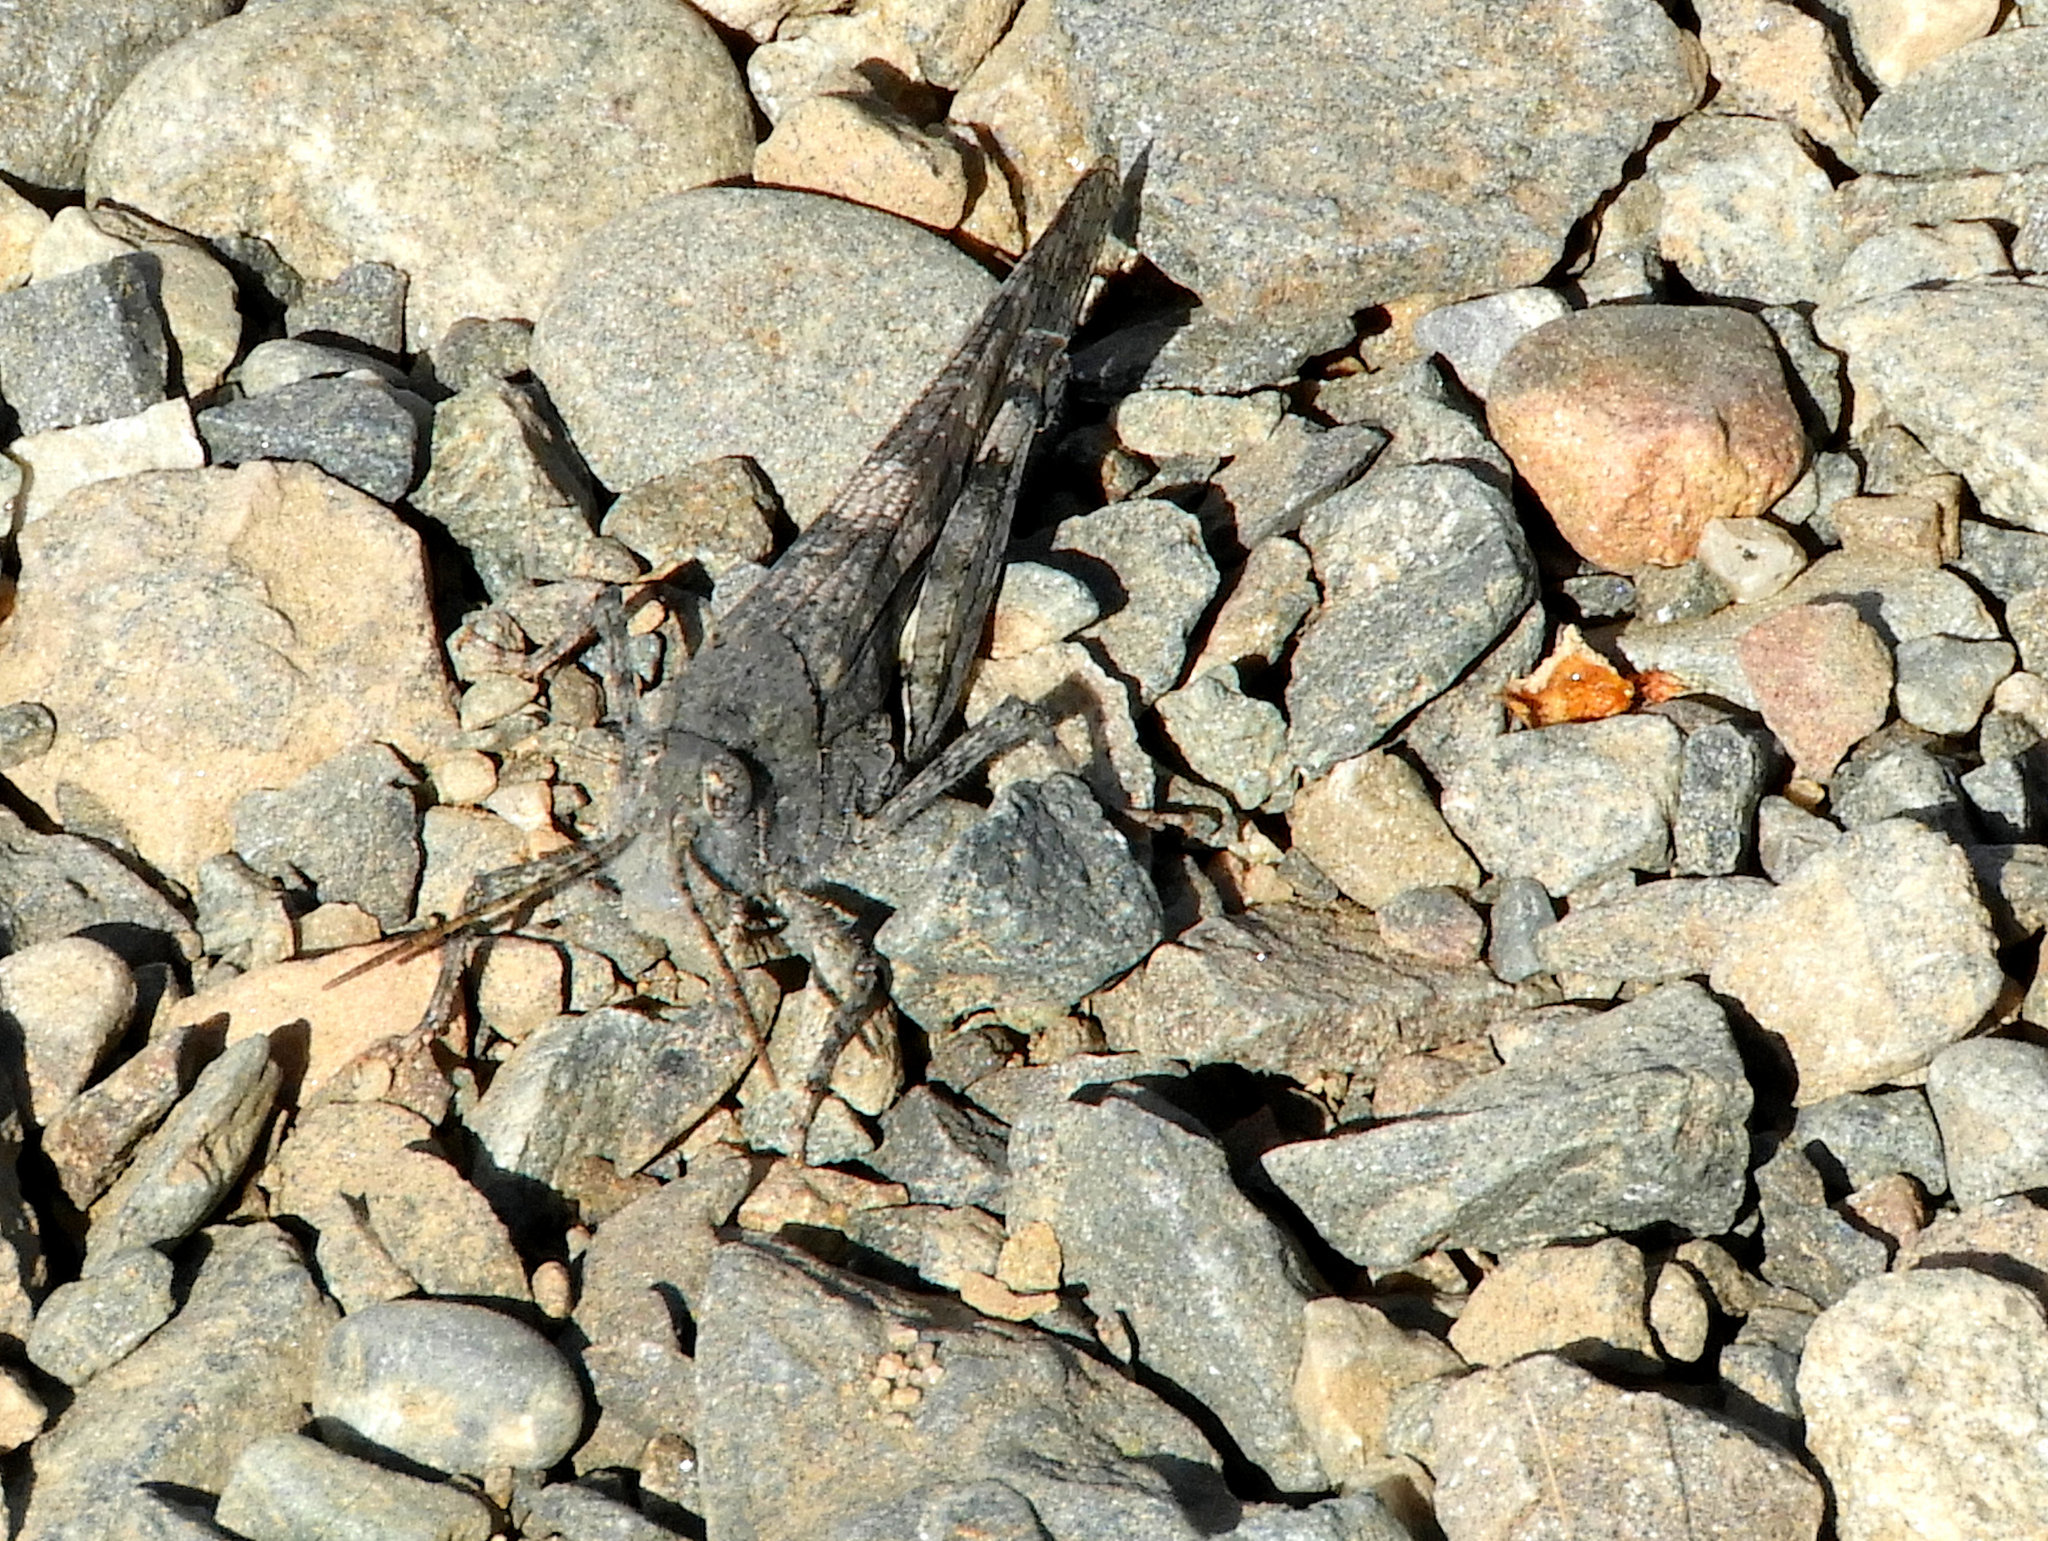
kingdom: Animalia
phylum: Arthropoda
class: Insecta
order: Orthoptera
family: Acrididae
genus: Trimerotropis
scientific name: Trimerotropis pallidipennis
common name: Pallid-winged grasshopper
